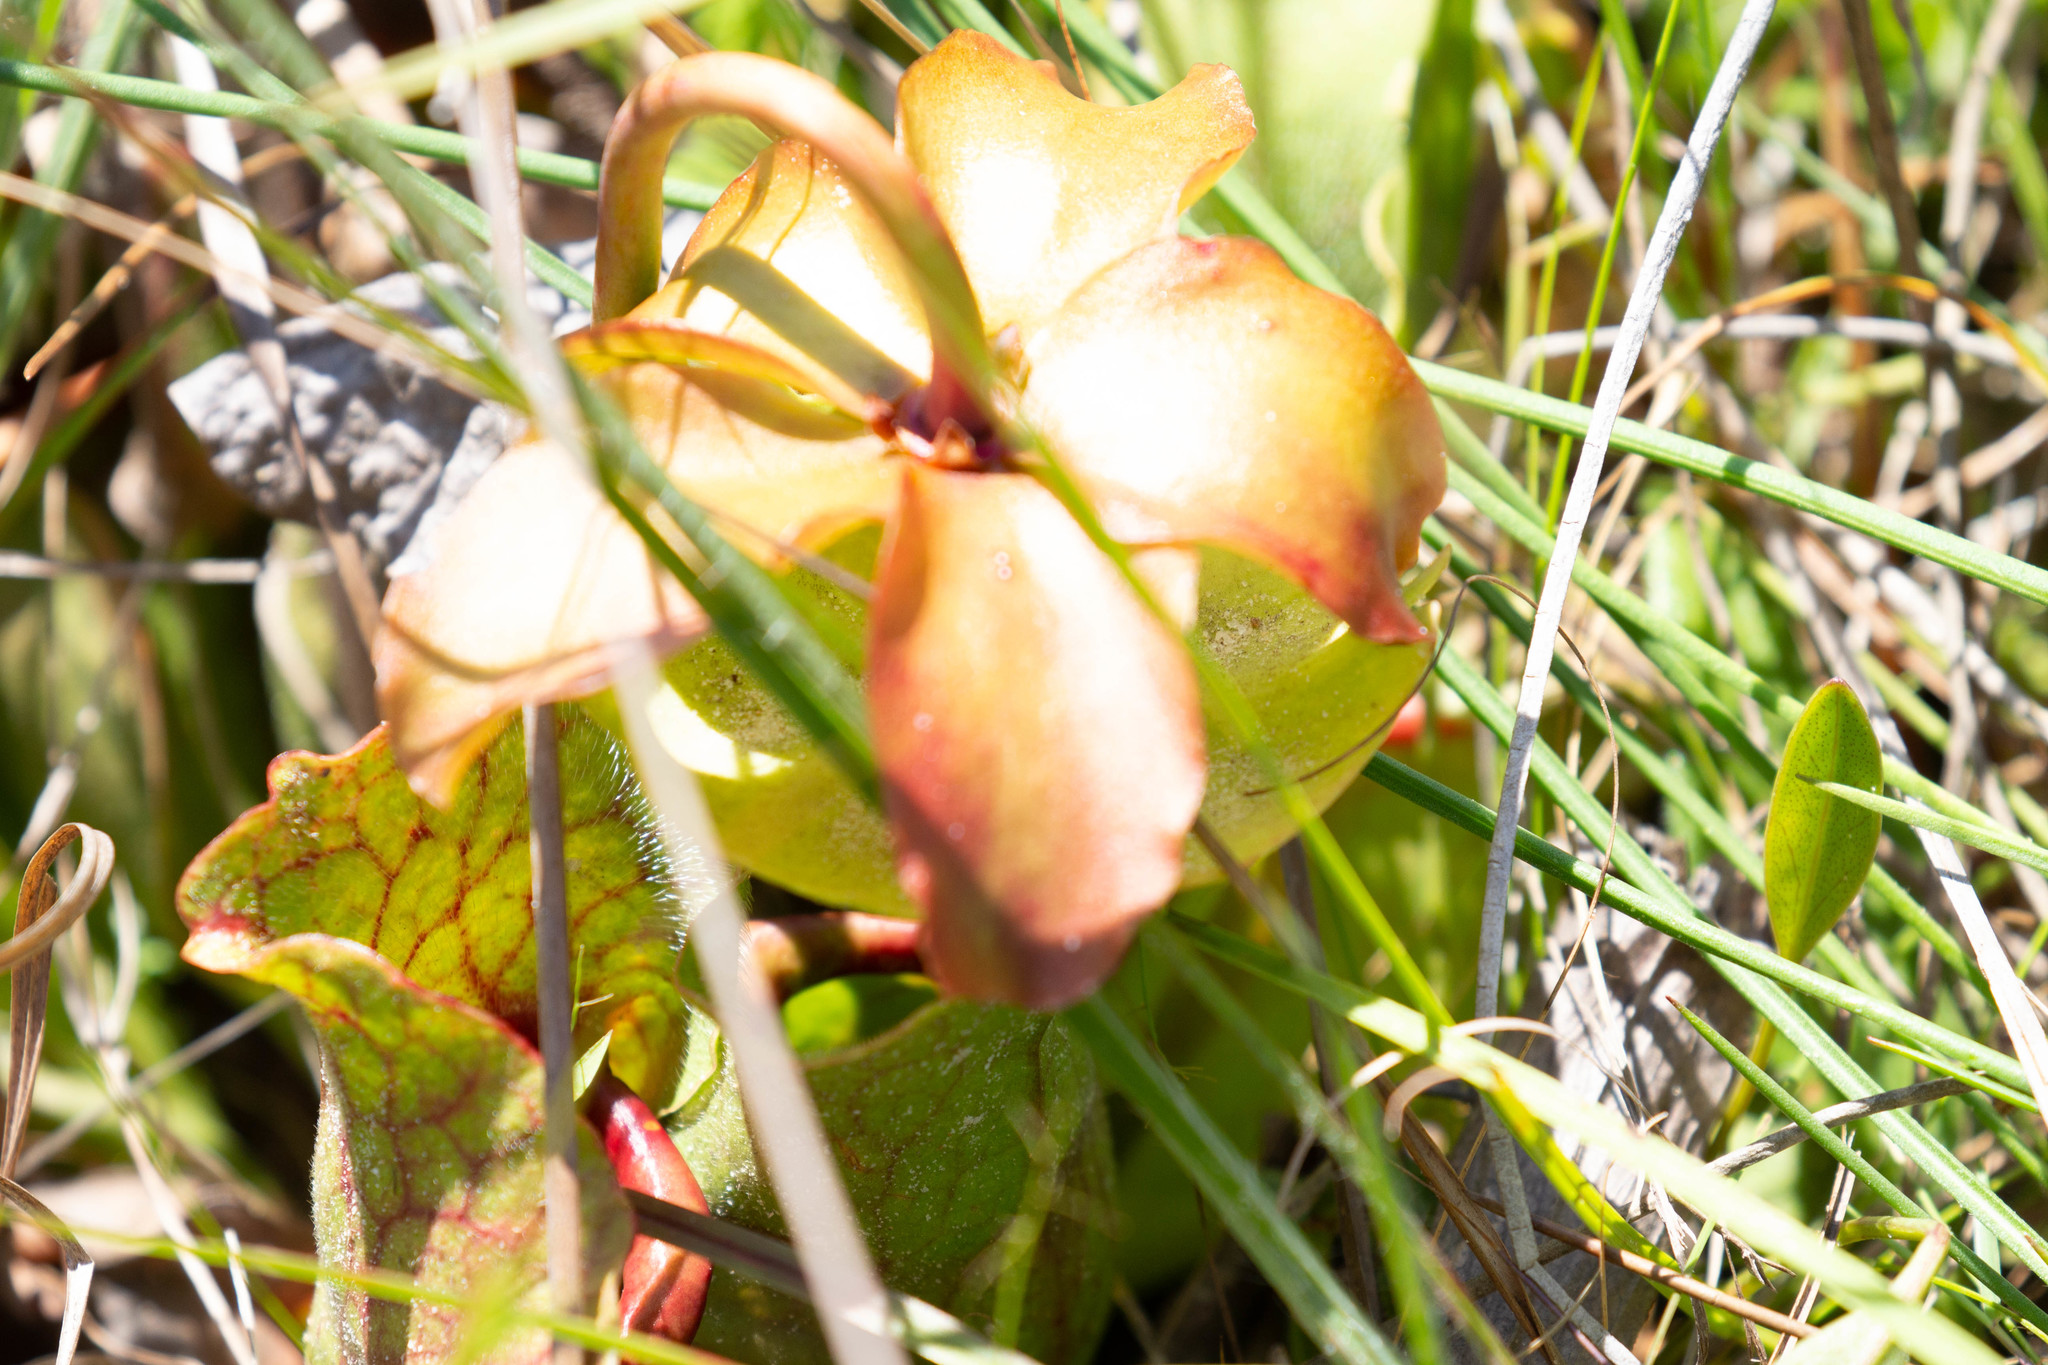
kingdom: Plantae
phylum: Tracheophyta
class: Magnoliopsida
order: Ericales
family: Sarraceniaceae
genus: Sarracenia
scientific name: Sarracenia rosea
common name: Pink pitcherplant
